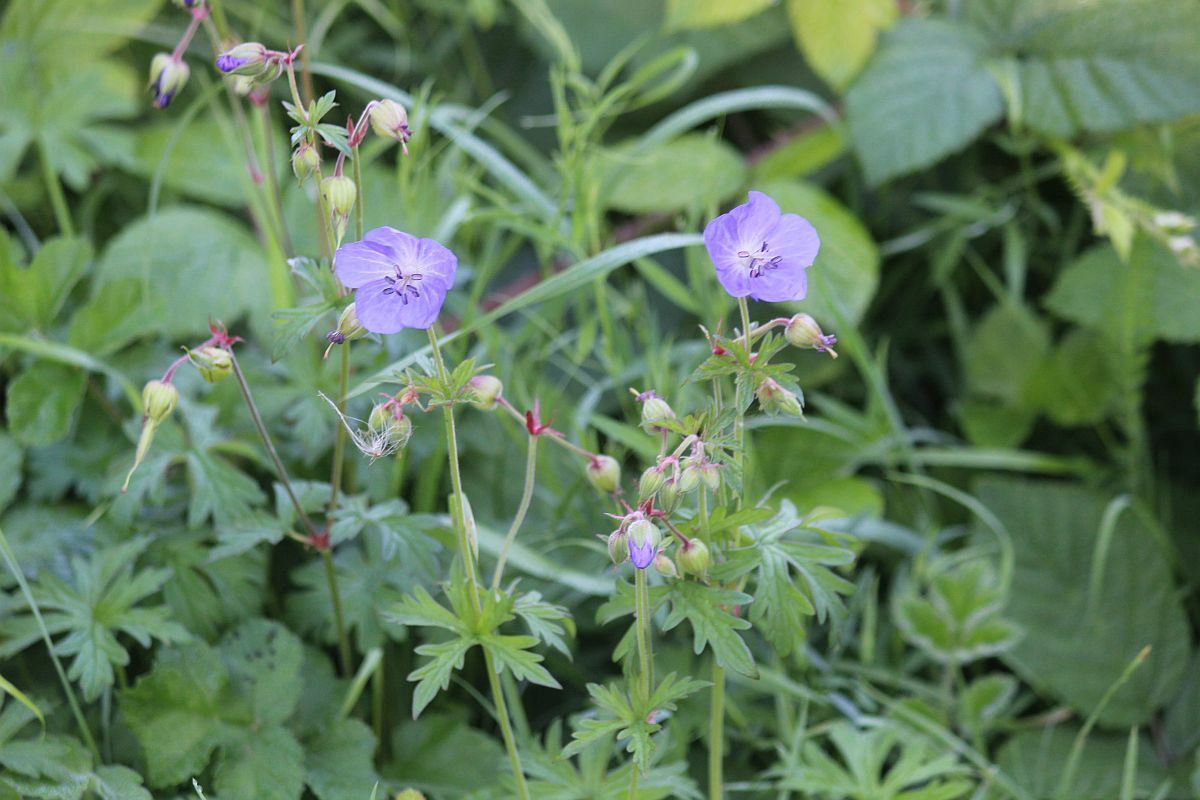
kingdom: Plantae
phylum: Tracheophyta
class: Magnoliopsida
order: Geraniales
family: Geraniaceae
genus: Geranium
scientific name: Geranium pratense
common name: Meadow crane's-bill
